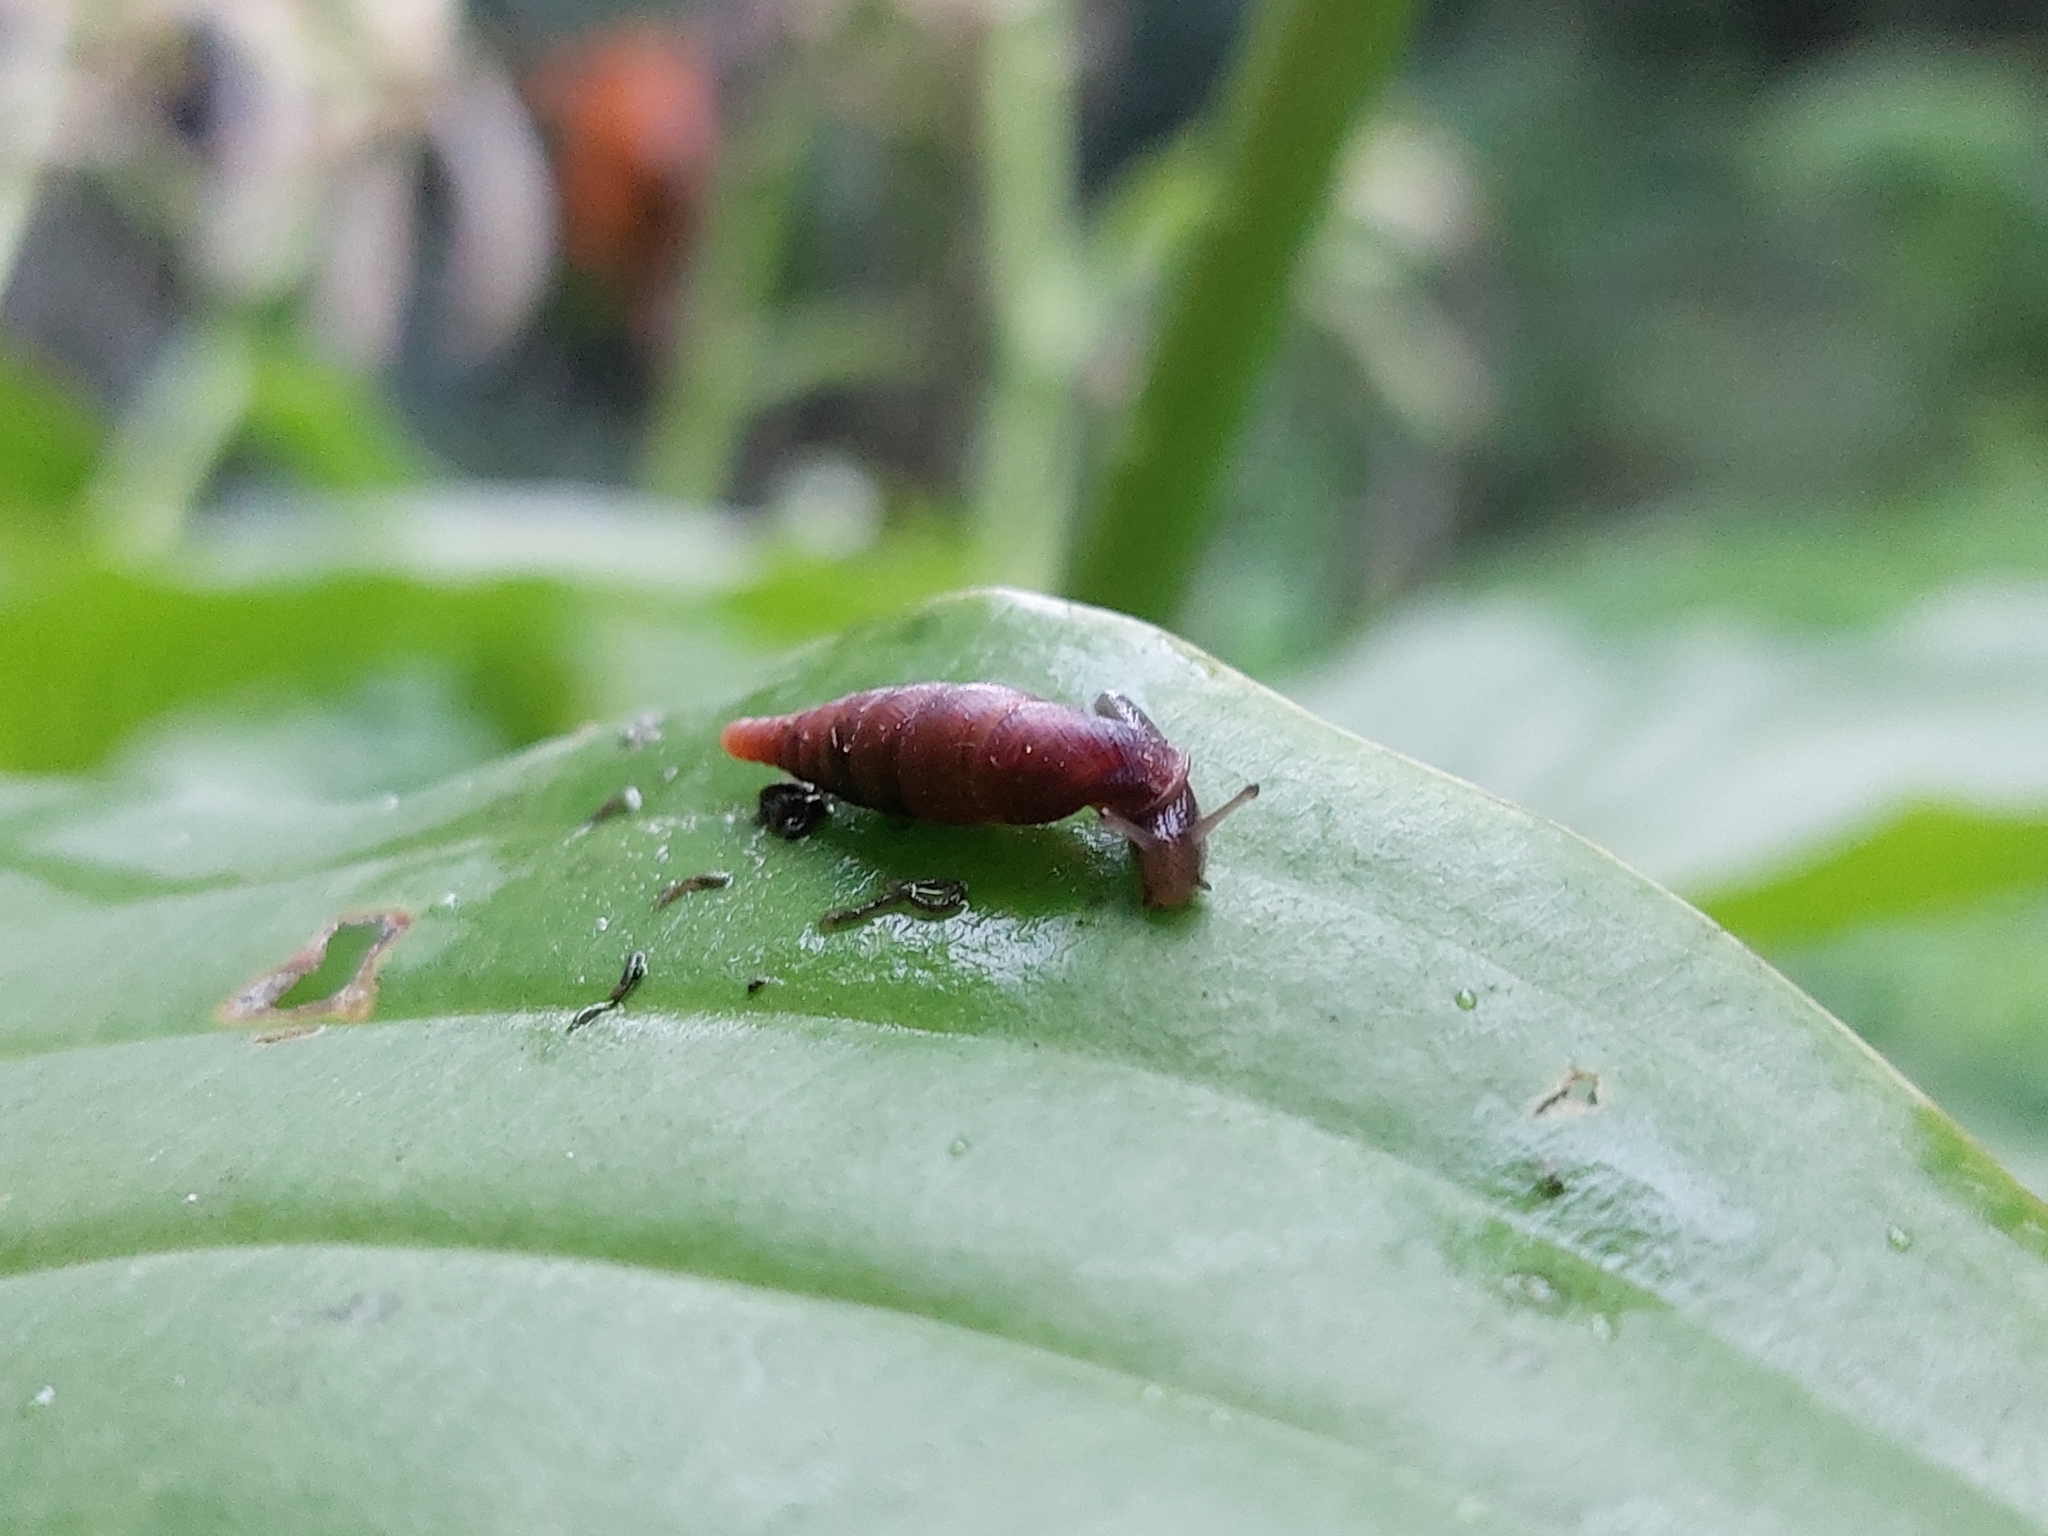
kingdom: Animalia
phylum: Mollusca
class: Gastropoda
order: Stylommatophora
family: Clausiliidae
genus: Cochlodina
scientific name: Cochlodina laminata
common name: Plaited door snail
